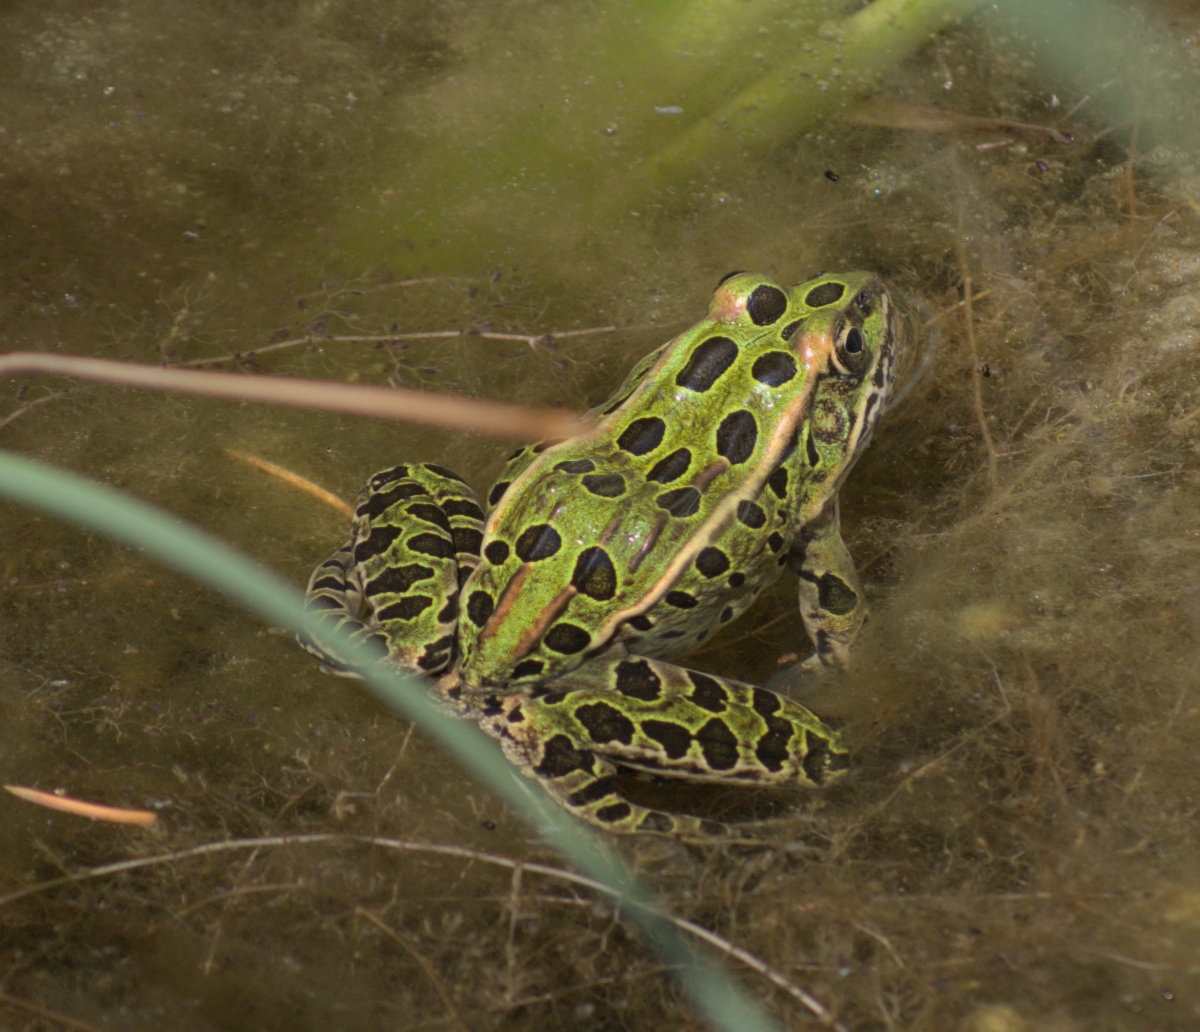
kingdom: Animalia
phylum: Chordata
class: Amphibia
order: Anura
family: Ranidae
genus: Lithobates
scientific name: Lithobates pipiens
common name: Northern leopard frog
